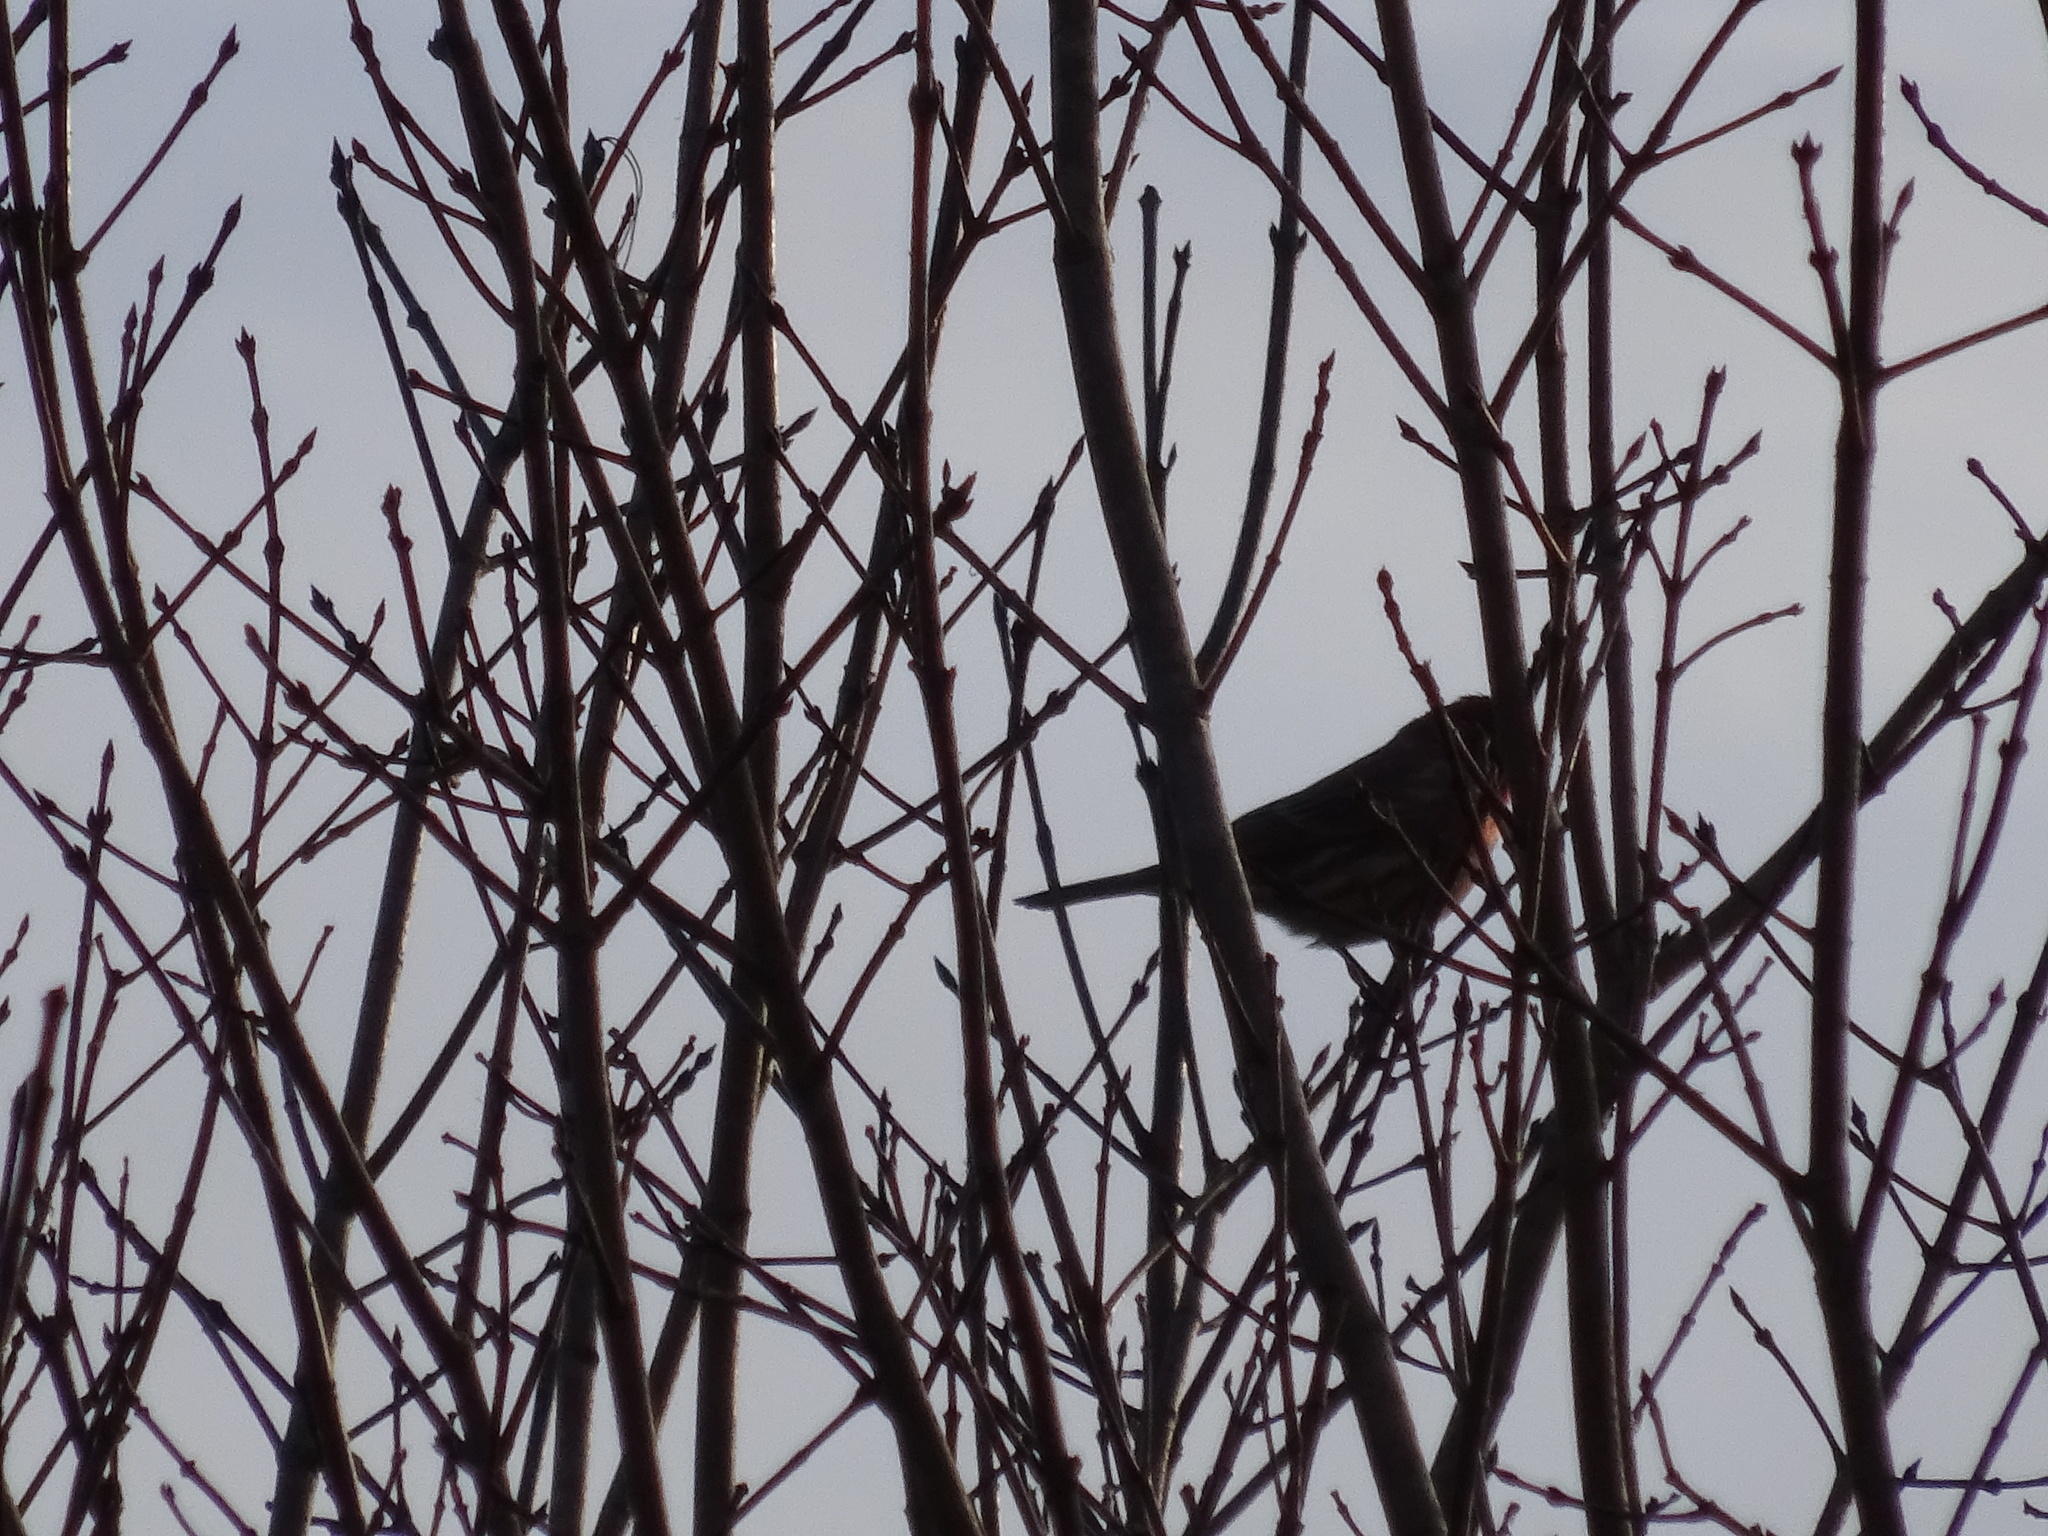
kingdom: Animalia
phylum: Chordata
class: Aves
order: Passeriformes
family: Fringillidae
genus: Haemorhous
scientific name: Haemorhous mexicanus
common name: House finch
